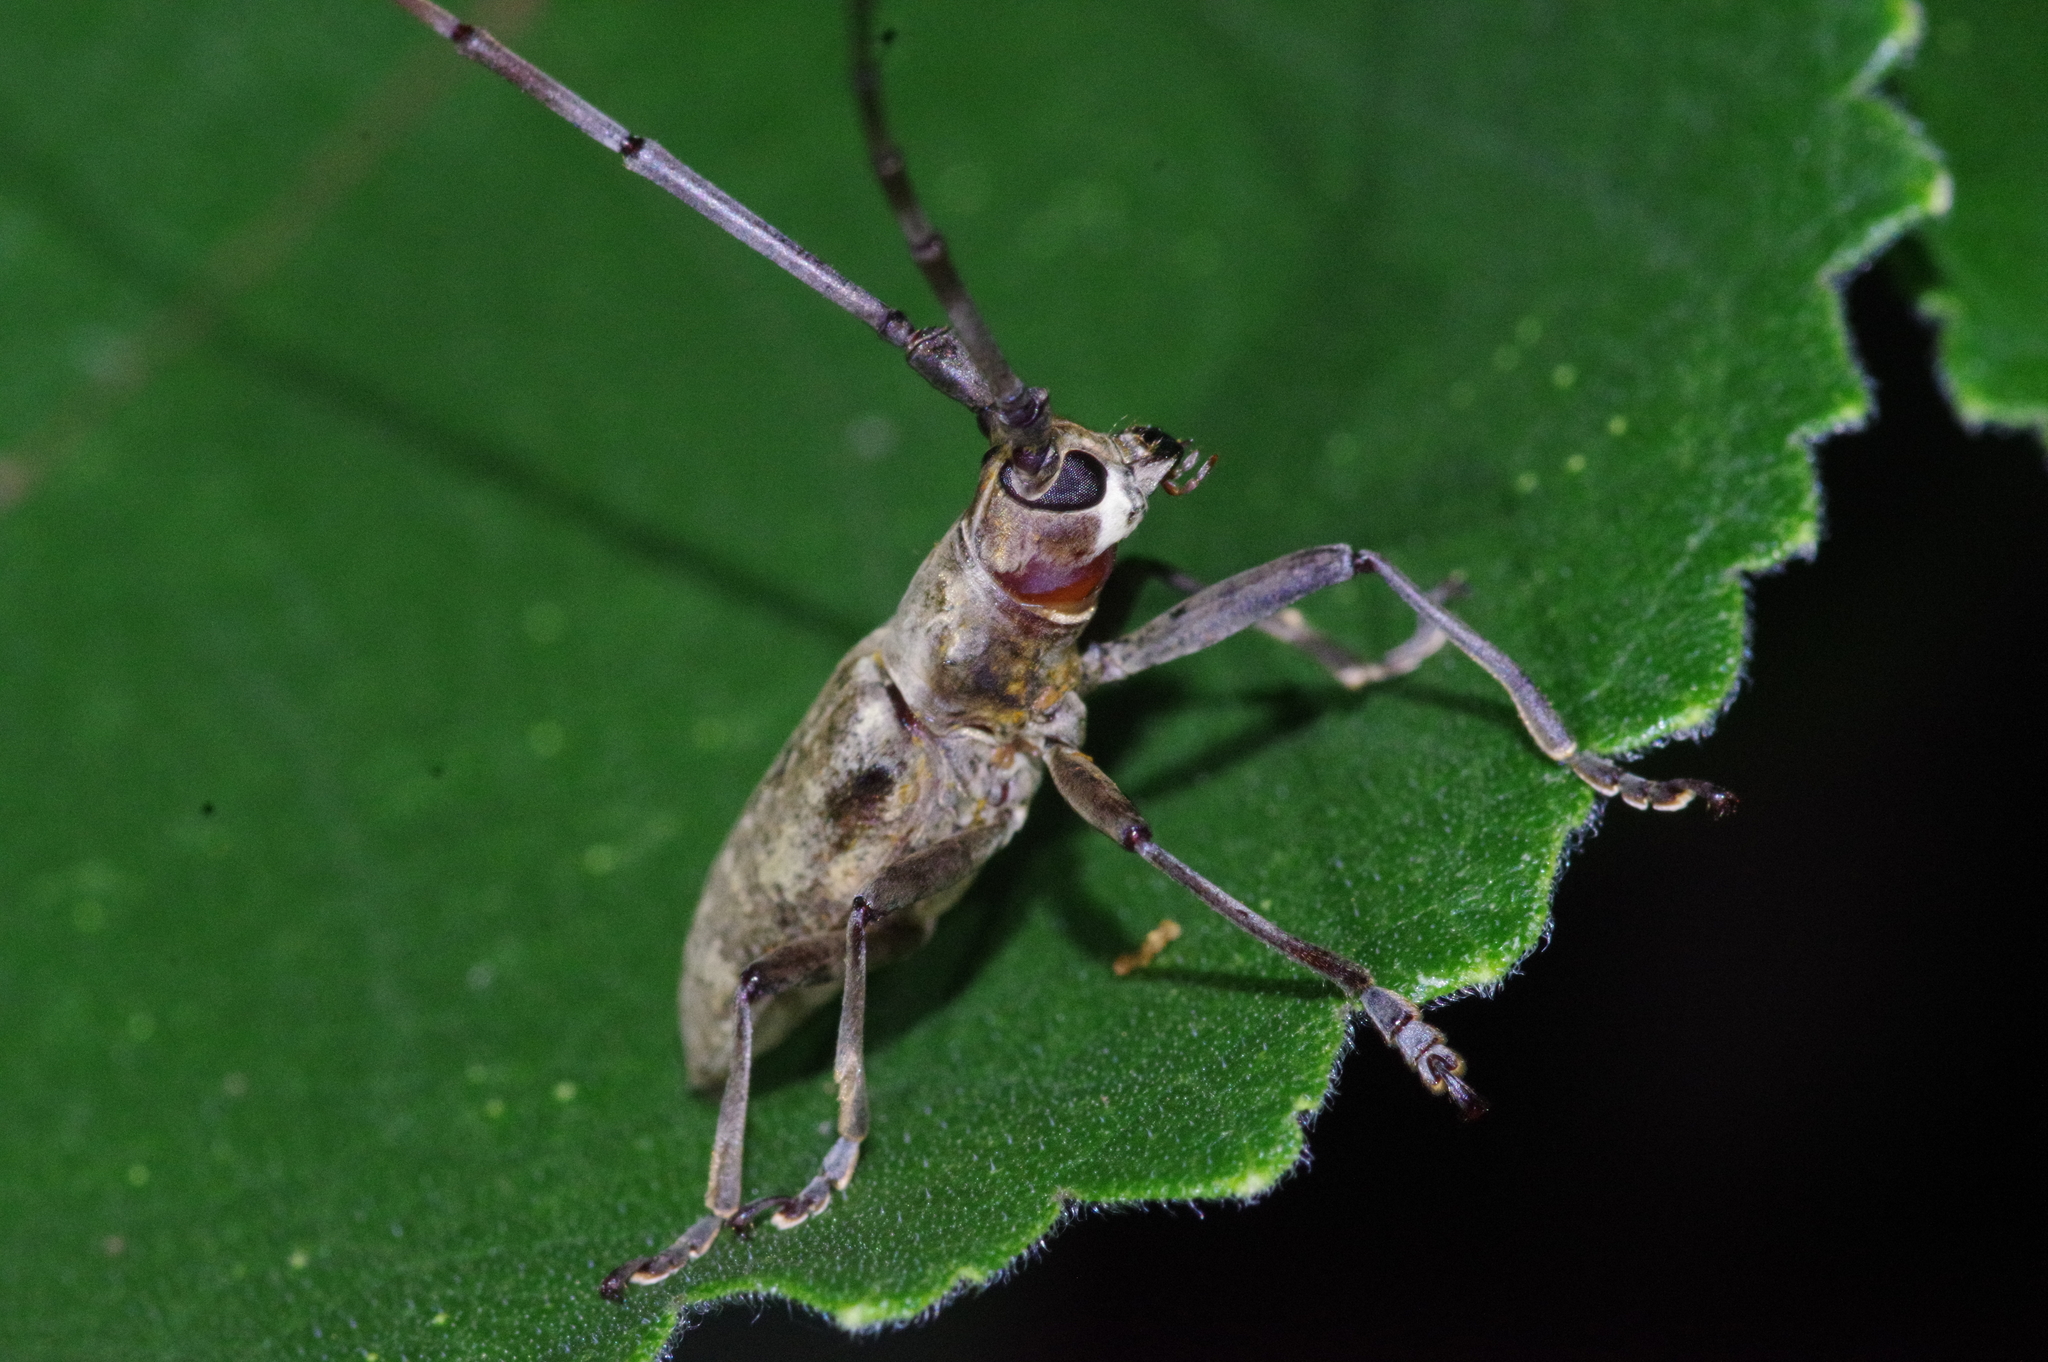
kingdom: Animalia
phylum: Arthropoda
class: Insecta
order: Coleoptera
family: Cerambycidae
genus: Psacothea
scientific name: Psacothea hilaris
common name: Yellow-spotted longicorn beetle
